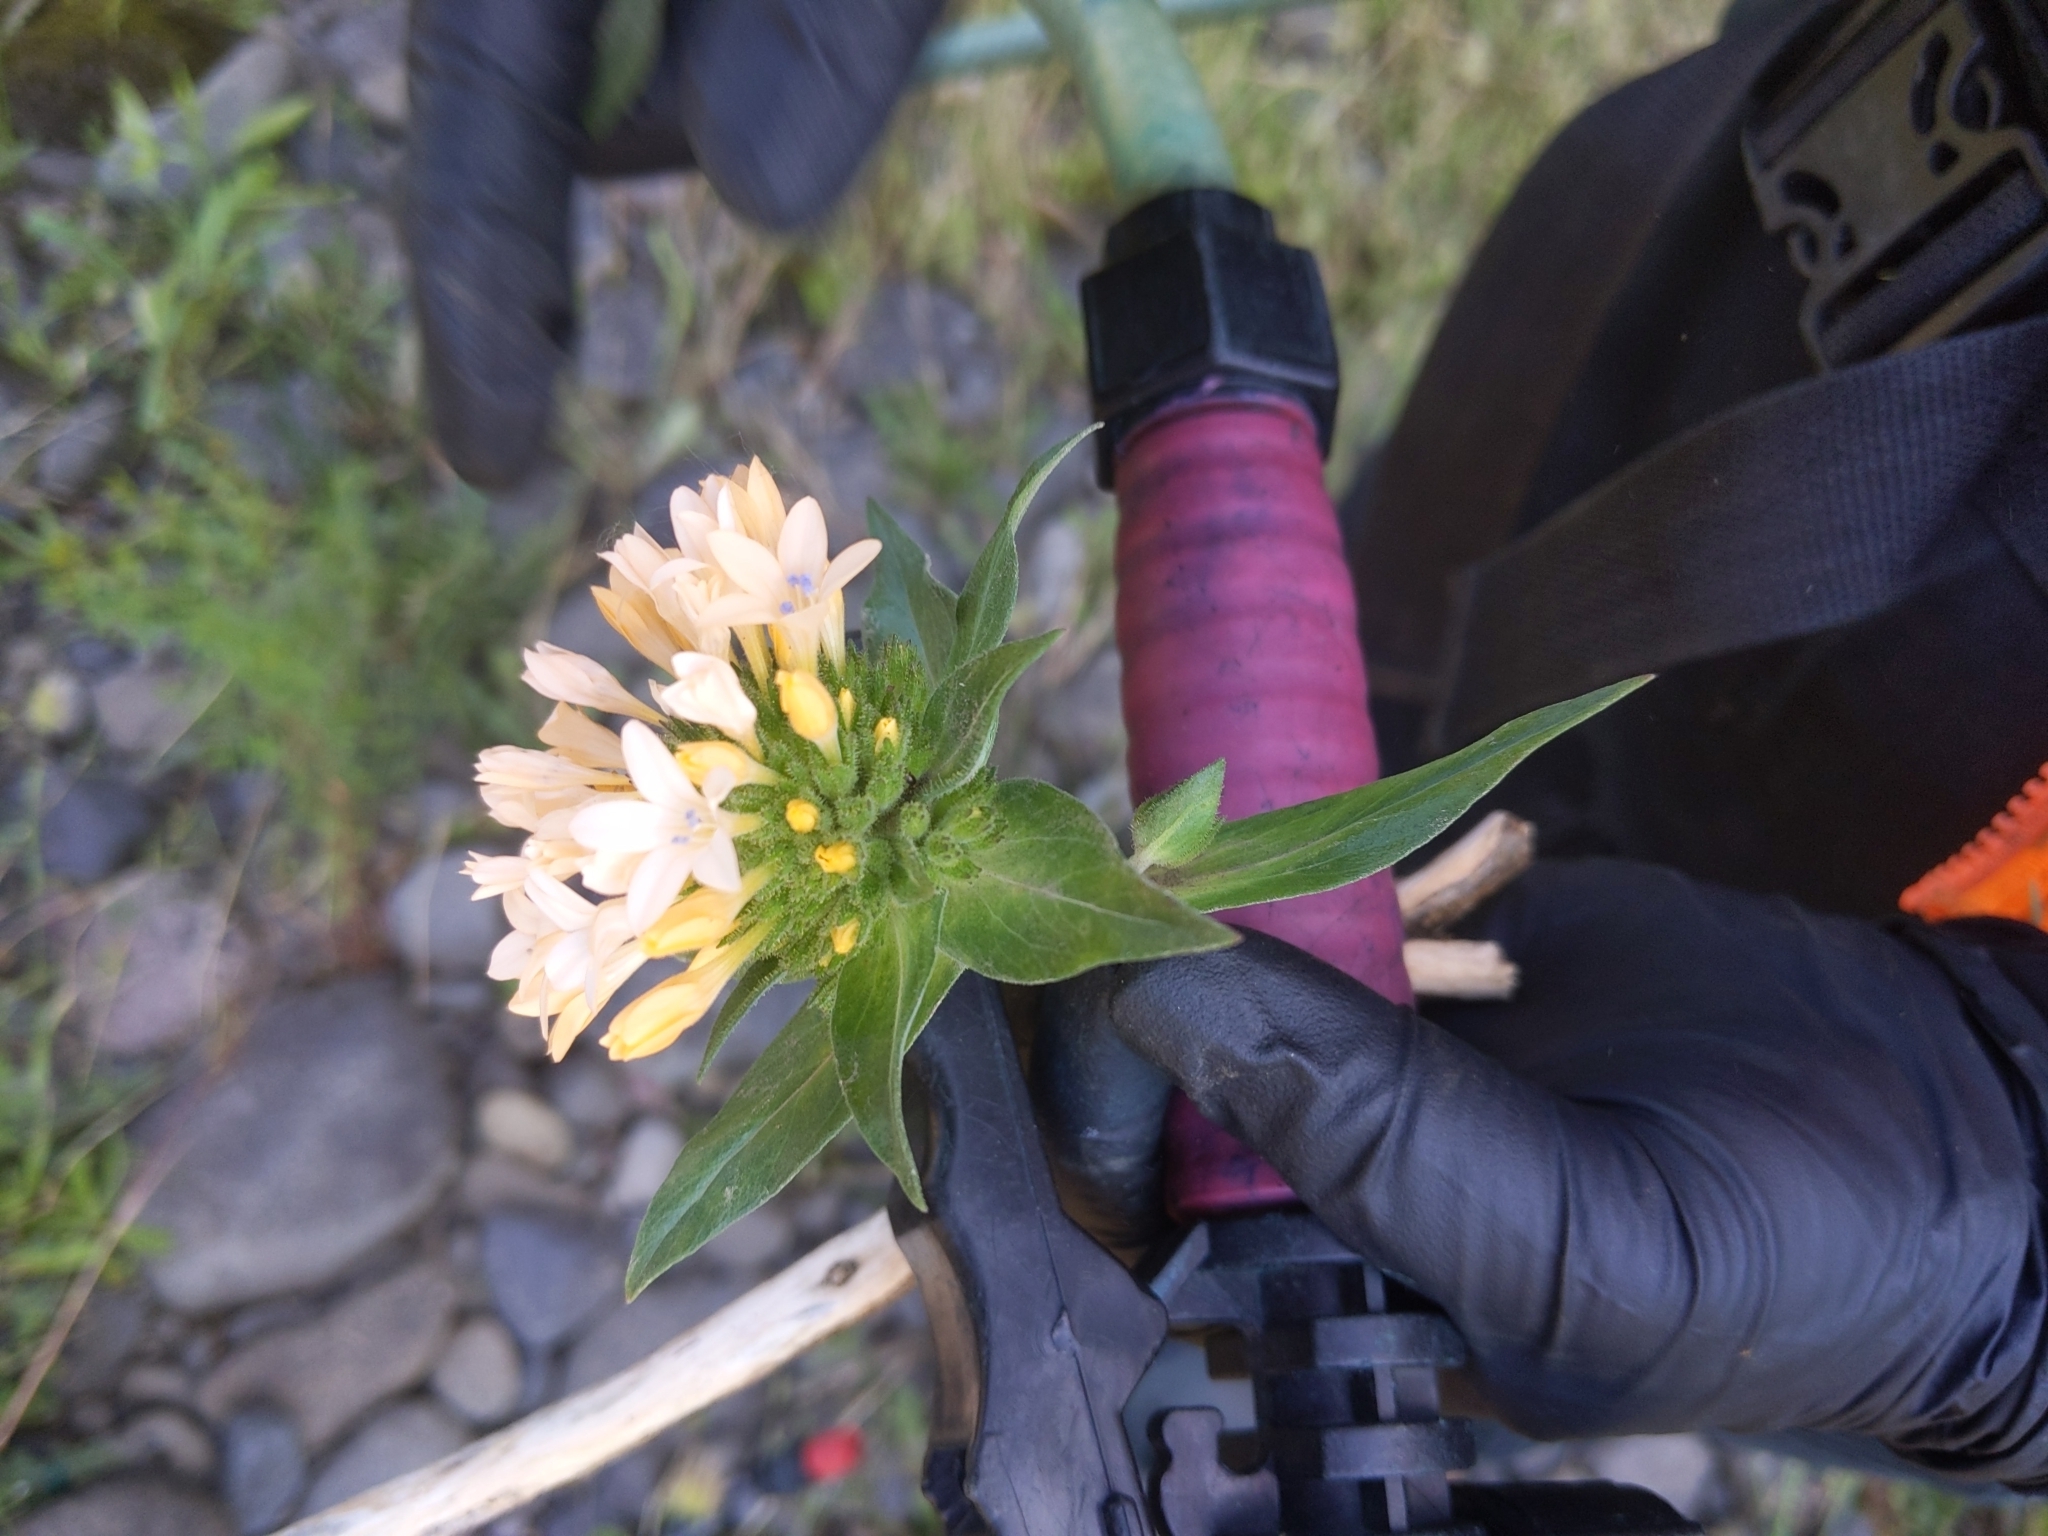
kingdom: Plantae
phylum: Tracheophyta
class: Magnoliopsida
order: Ericales
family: Polemoniaceae
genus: Collomia
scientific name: Collomia grandiflora
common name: California strawflower
